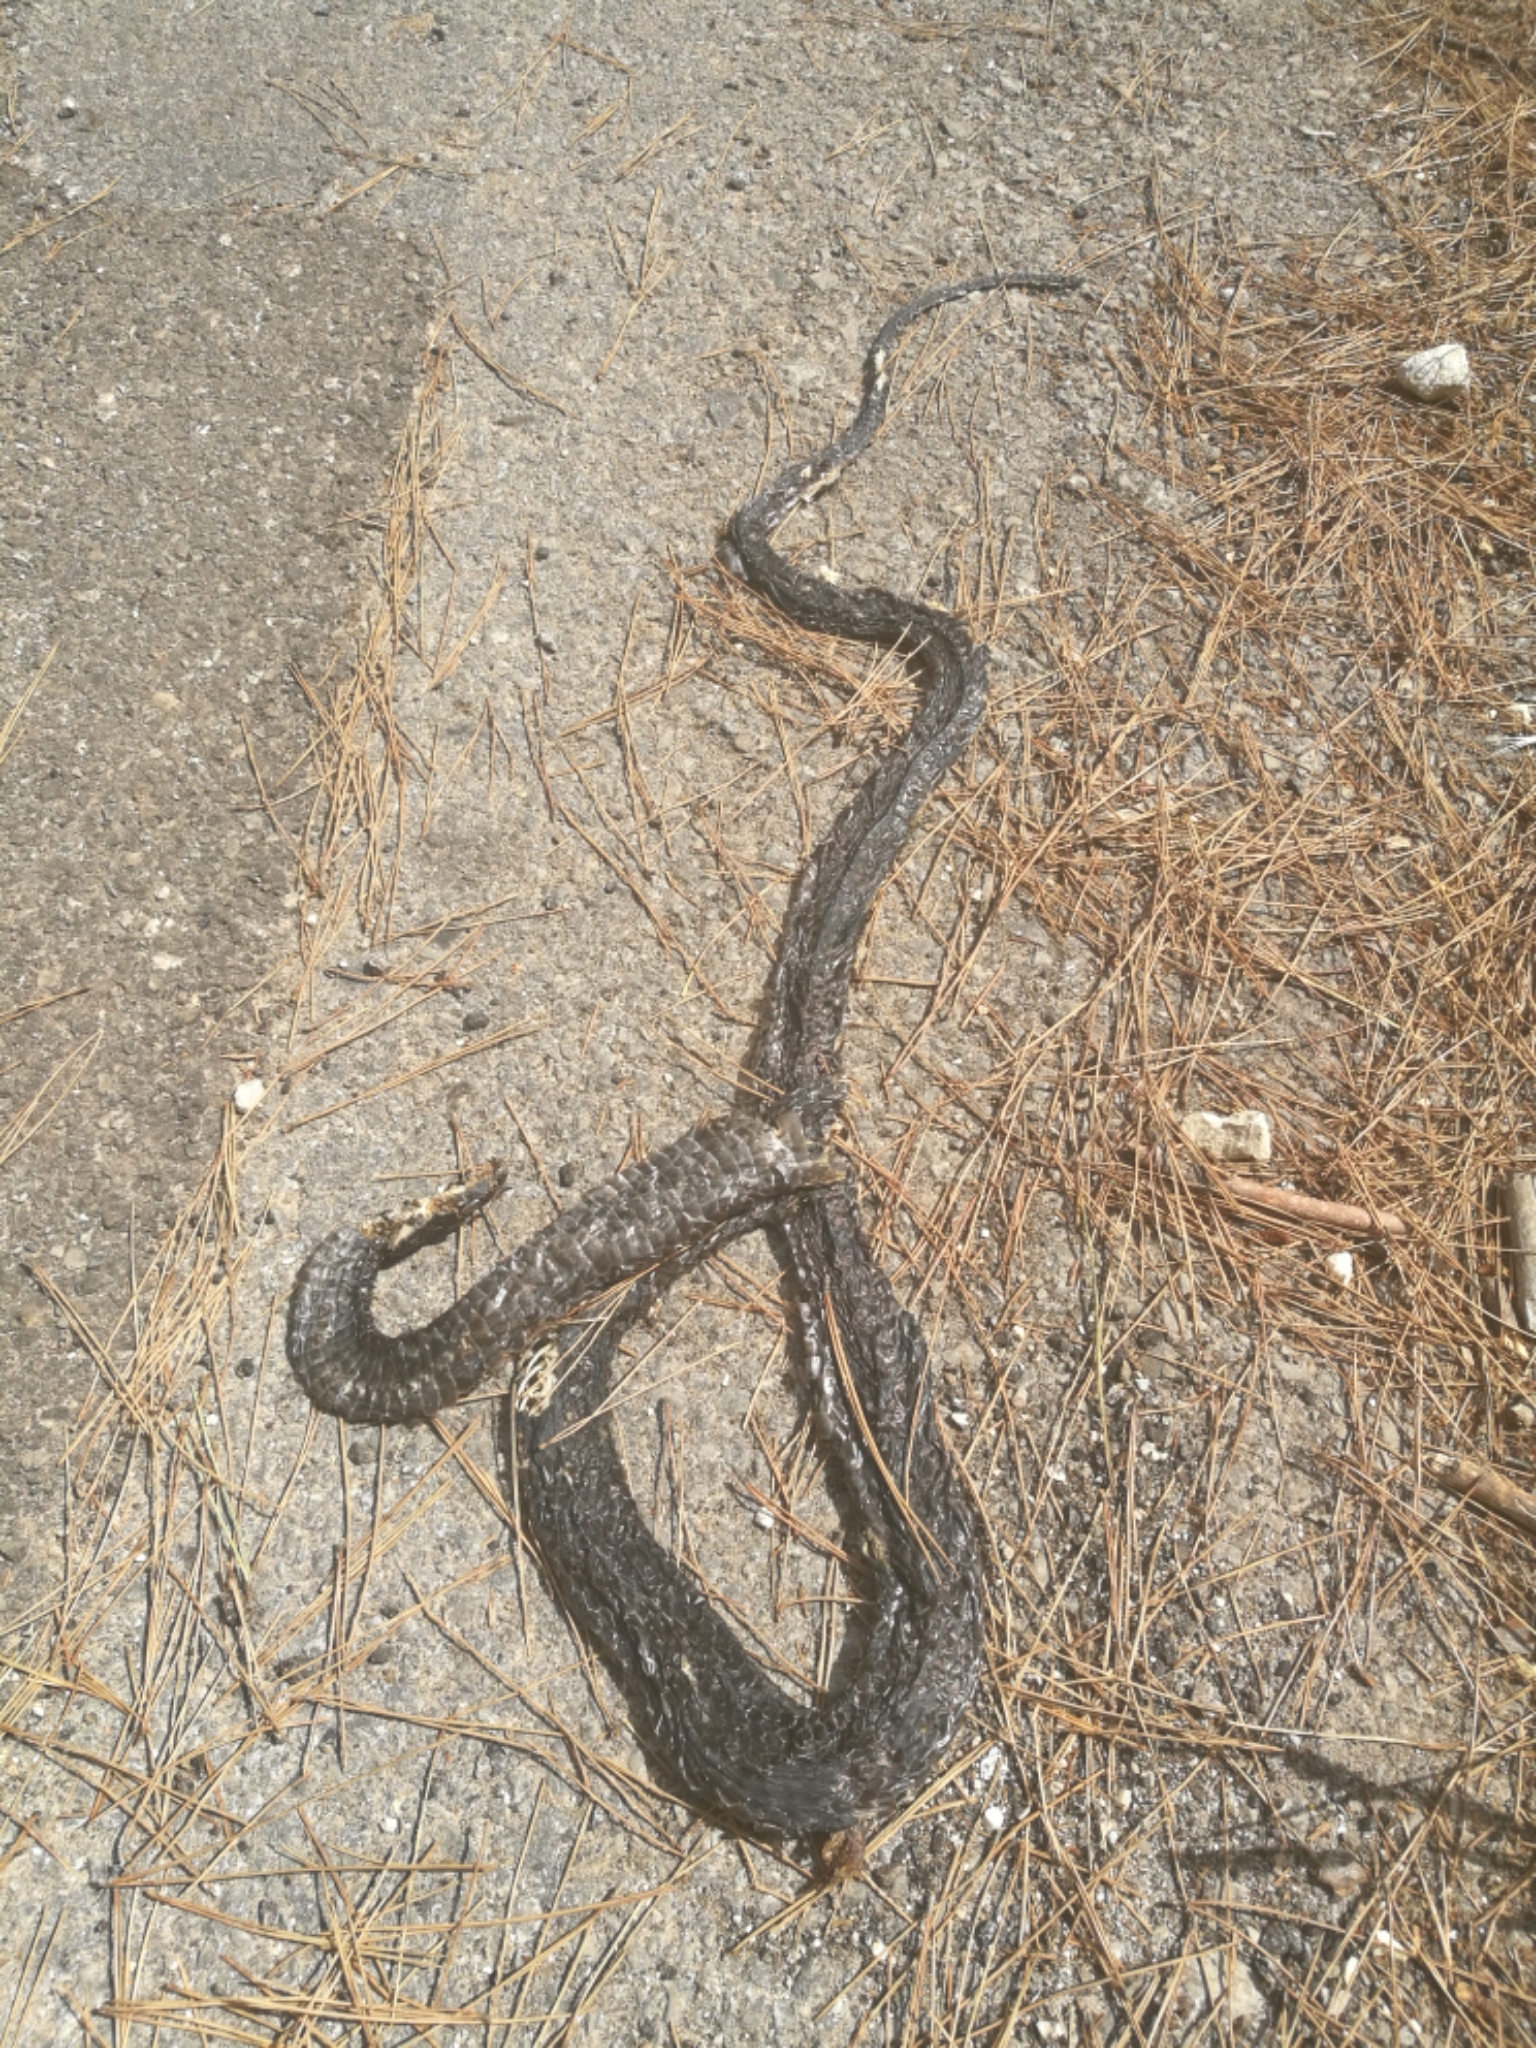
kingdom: Animalia
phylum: Chordata
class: Squamata
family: Colubridae
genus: Hierophis
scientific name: Hierophis viridiflavus
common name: Green whip snake
